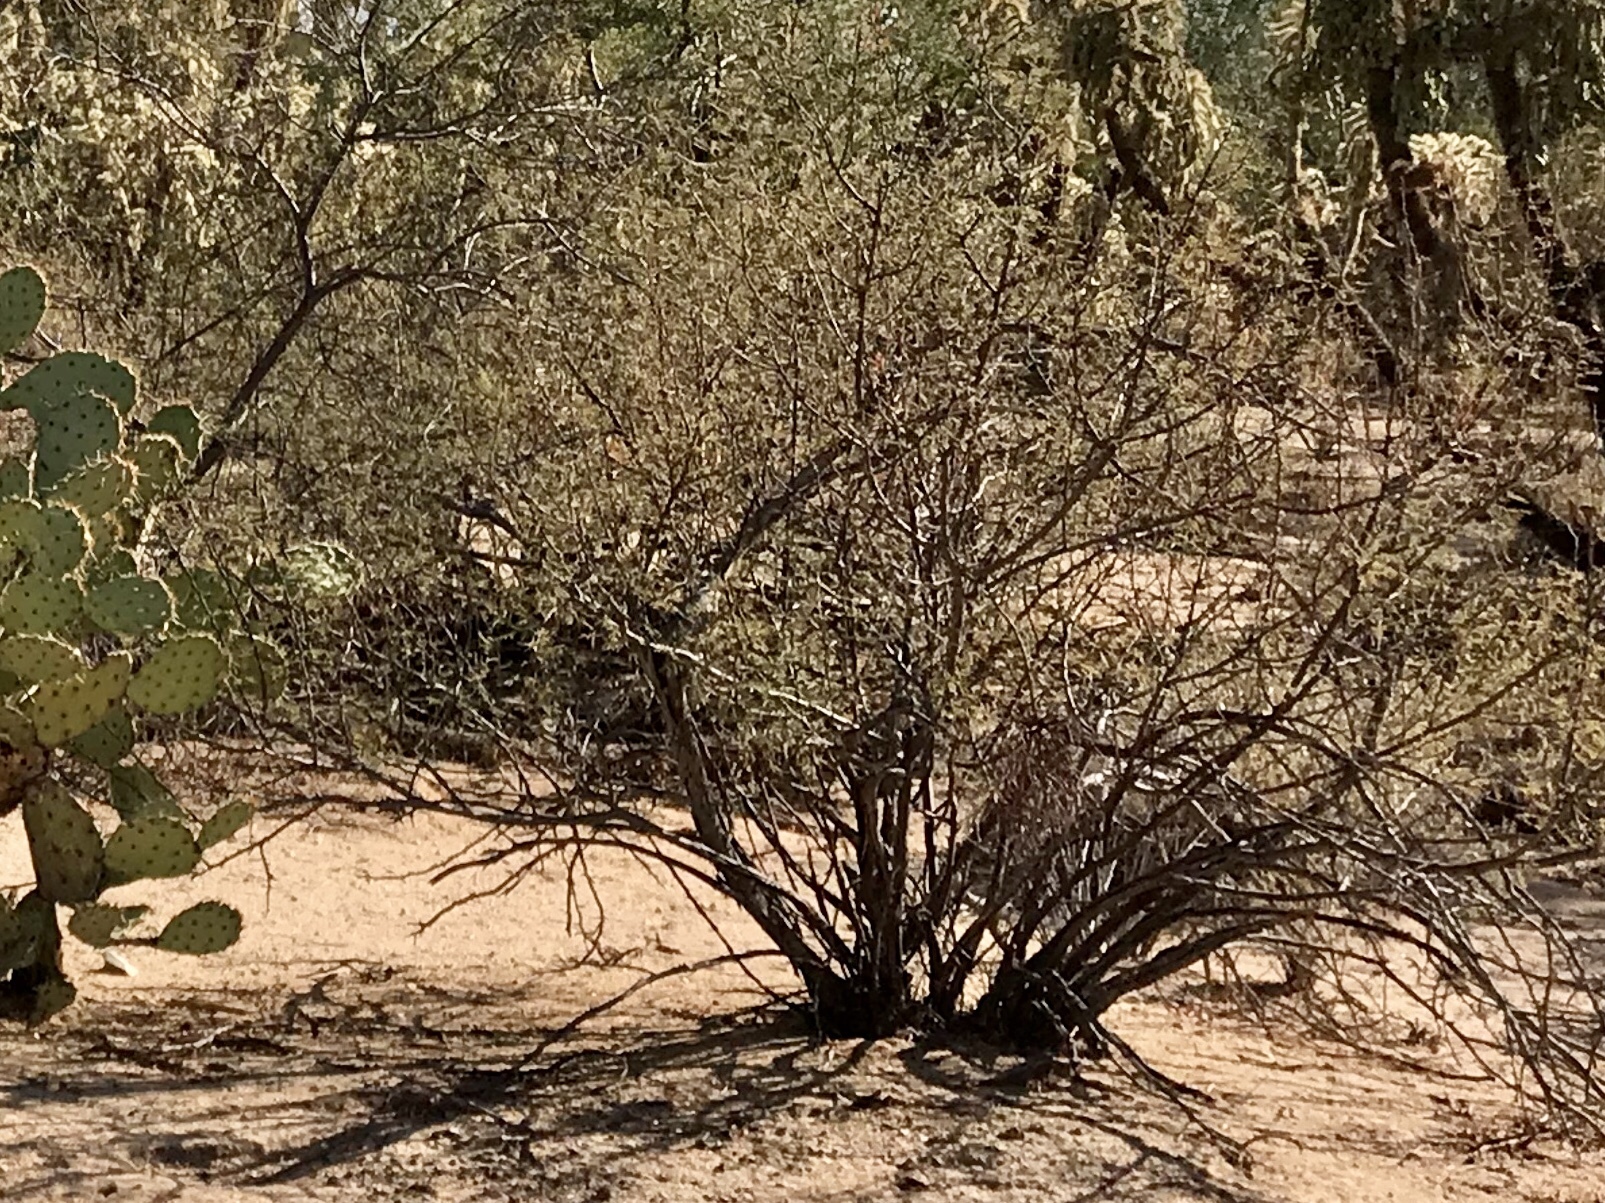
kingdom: Plantae
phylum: Tracheophyta
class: Magnoliopsida
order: Fabales
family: Fabaceae
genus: Vachellia
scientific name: Vachellia constricta
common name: Mescat acacia
